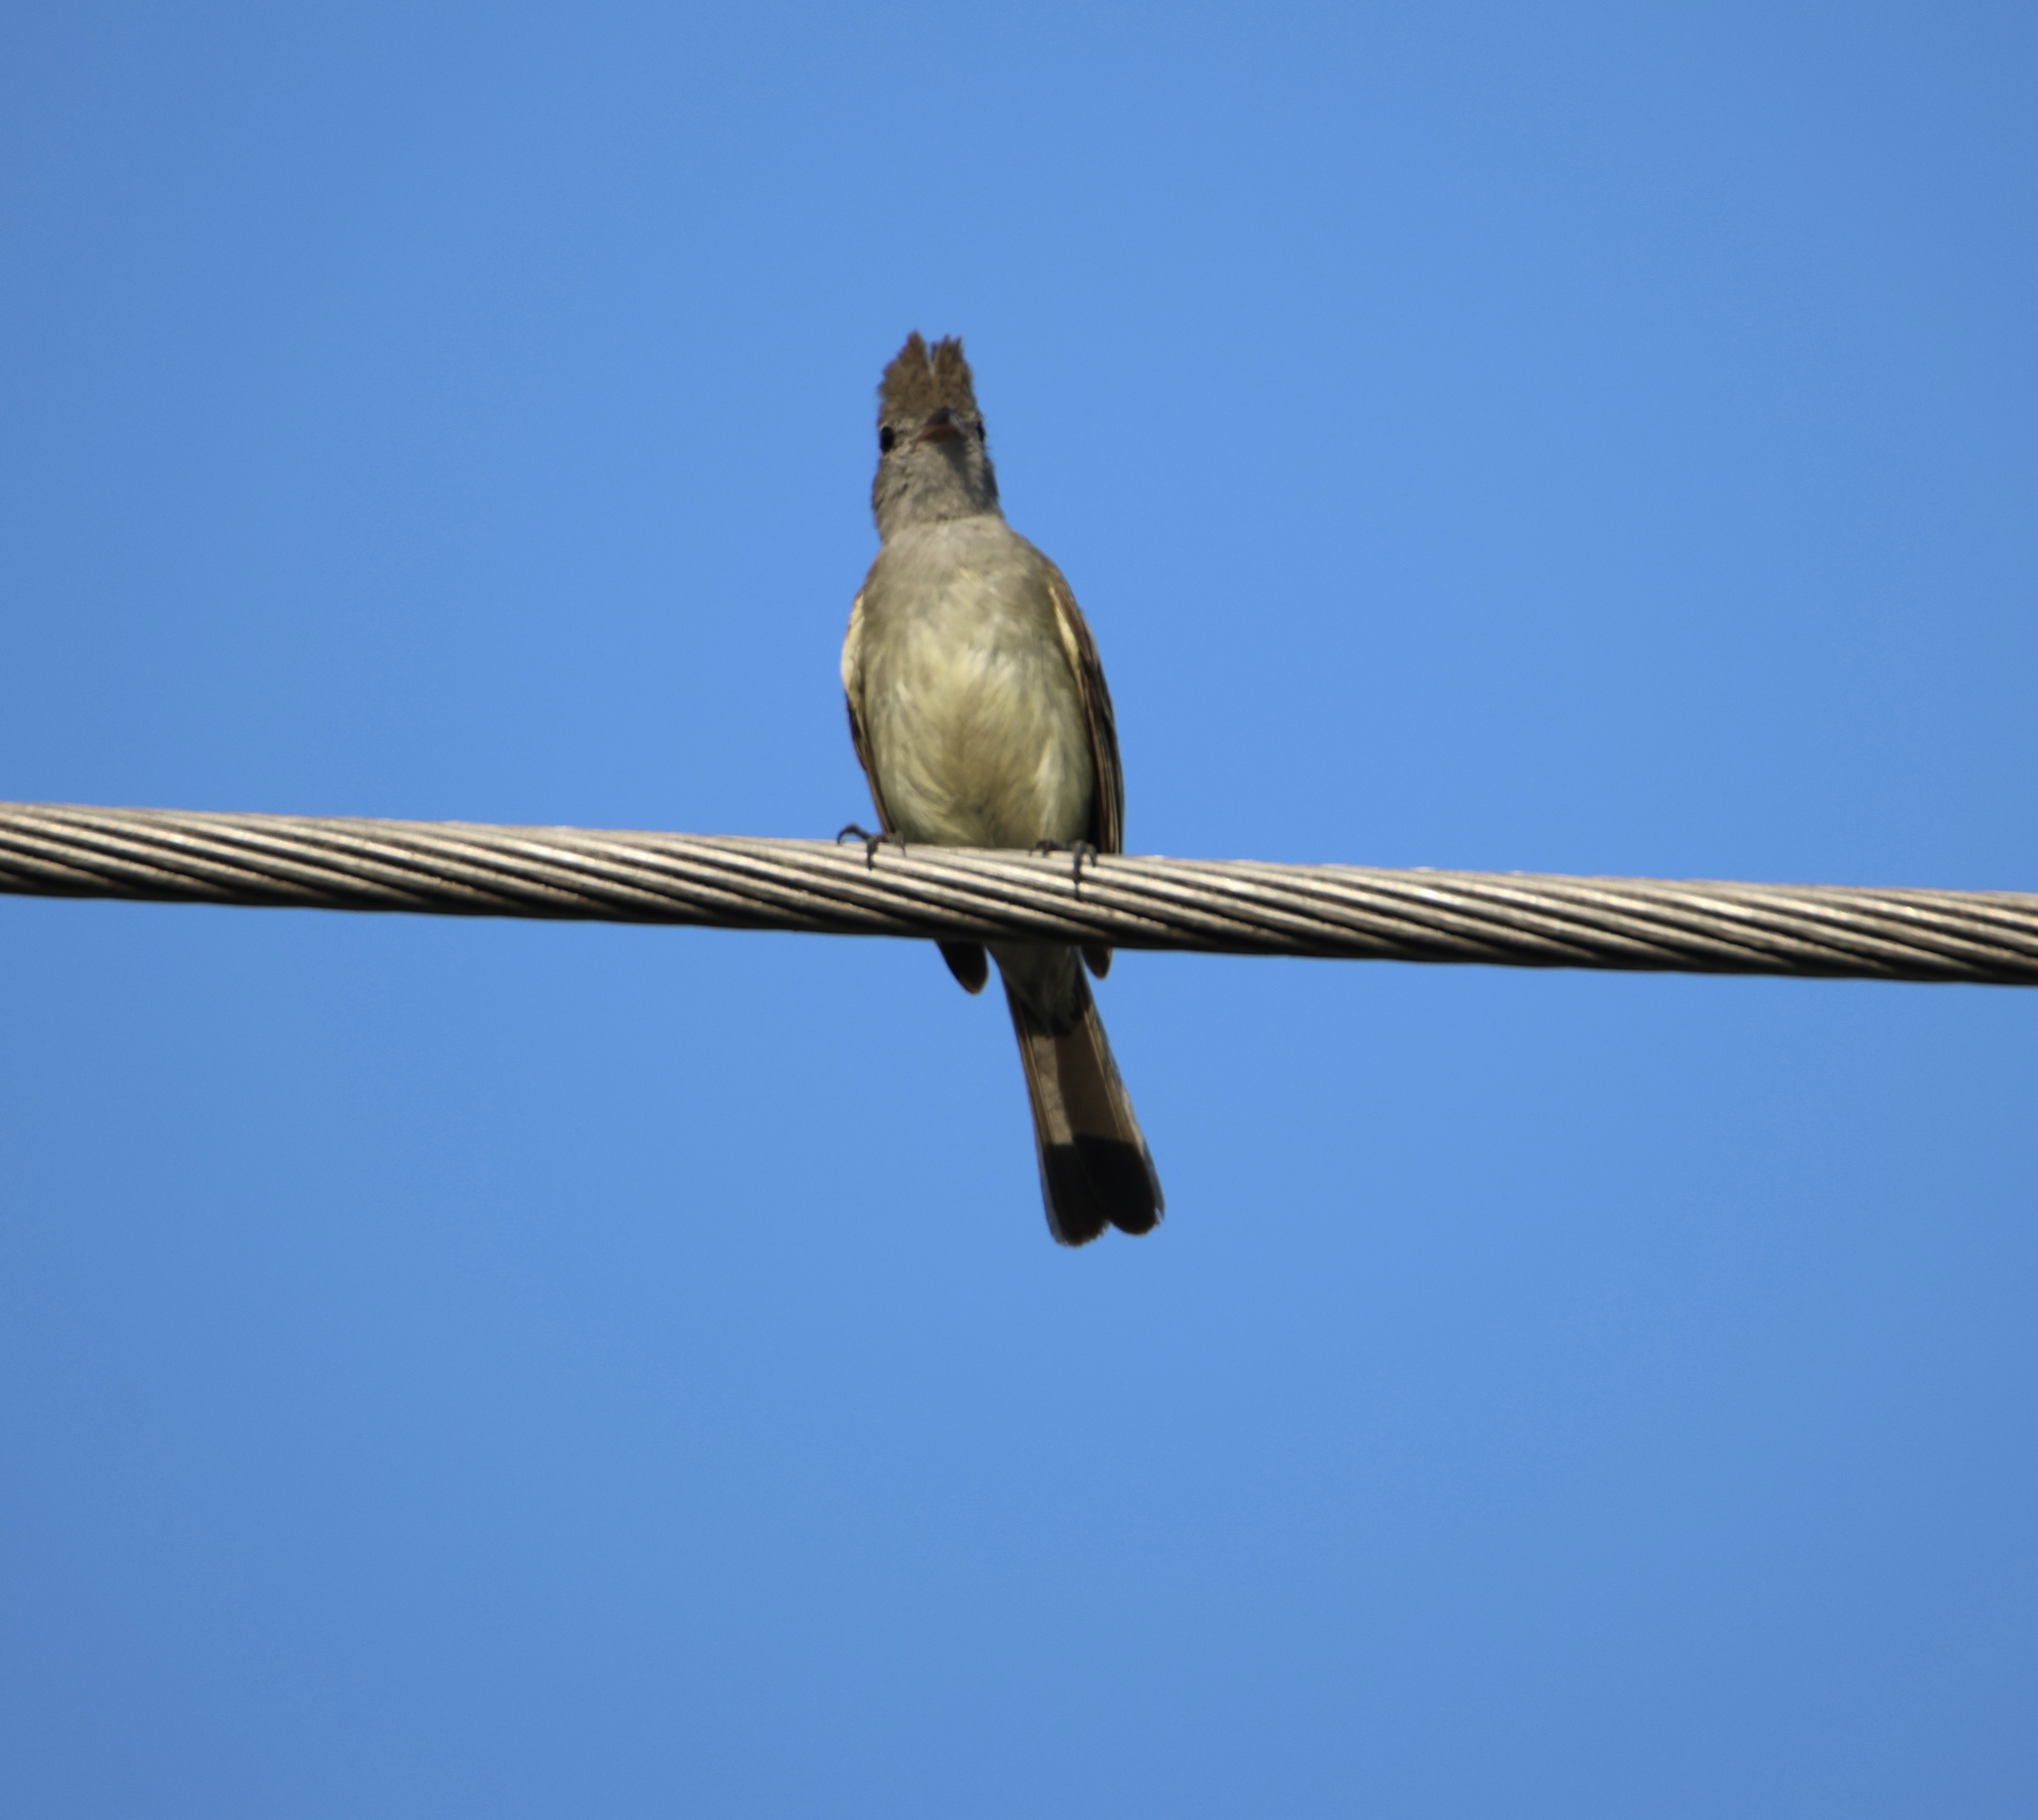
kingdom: Animalia
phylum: Chordata
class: Aves
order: Passeriformes
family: Tyrannidae
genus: Elaenia
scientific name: Elaenia flavogaster
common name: Yellow-bellied elaenia
